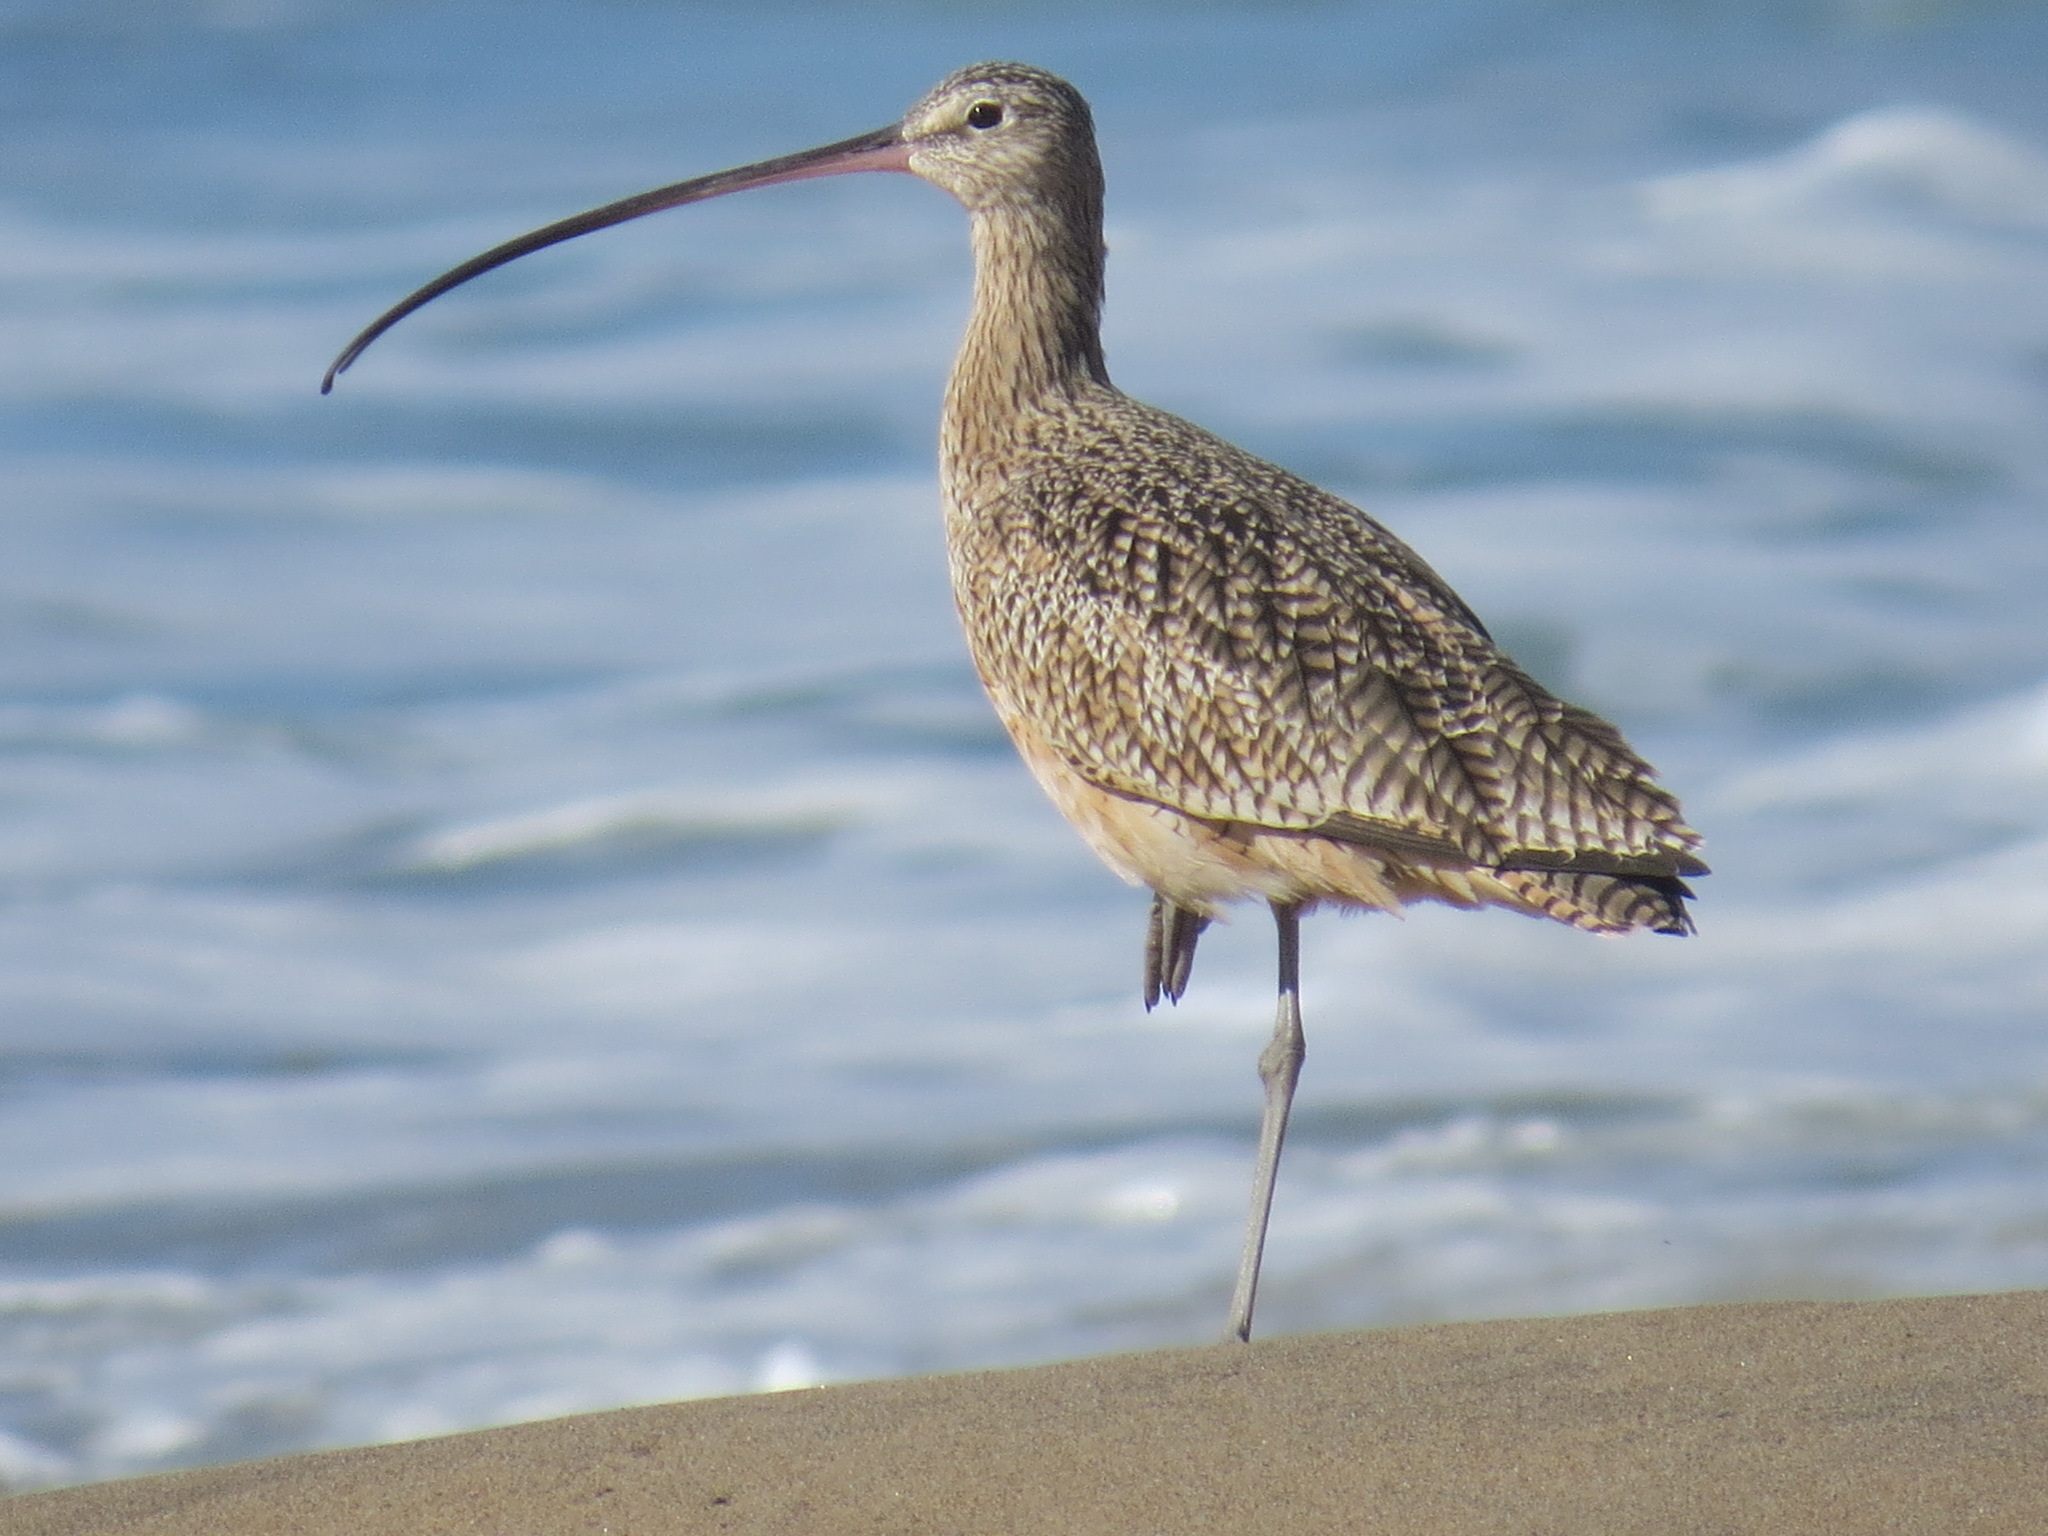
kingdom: Animalia
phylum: Chordata
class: Aves
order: Charadriiformes
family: Scolopacidae
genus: Numenius
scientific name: Numenius americanus
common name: Long-billed curlew
